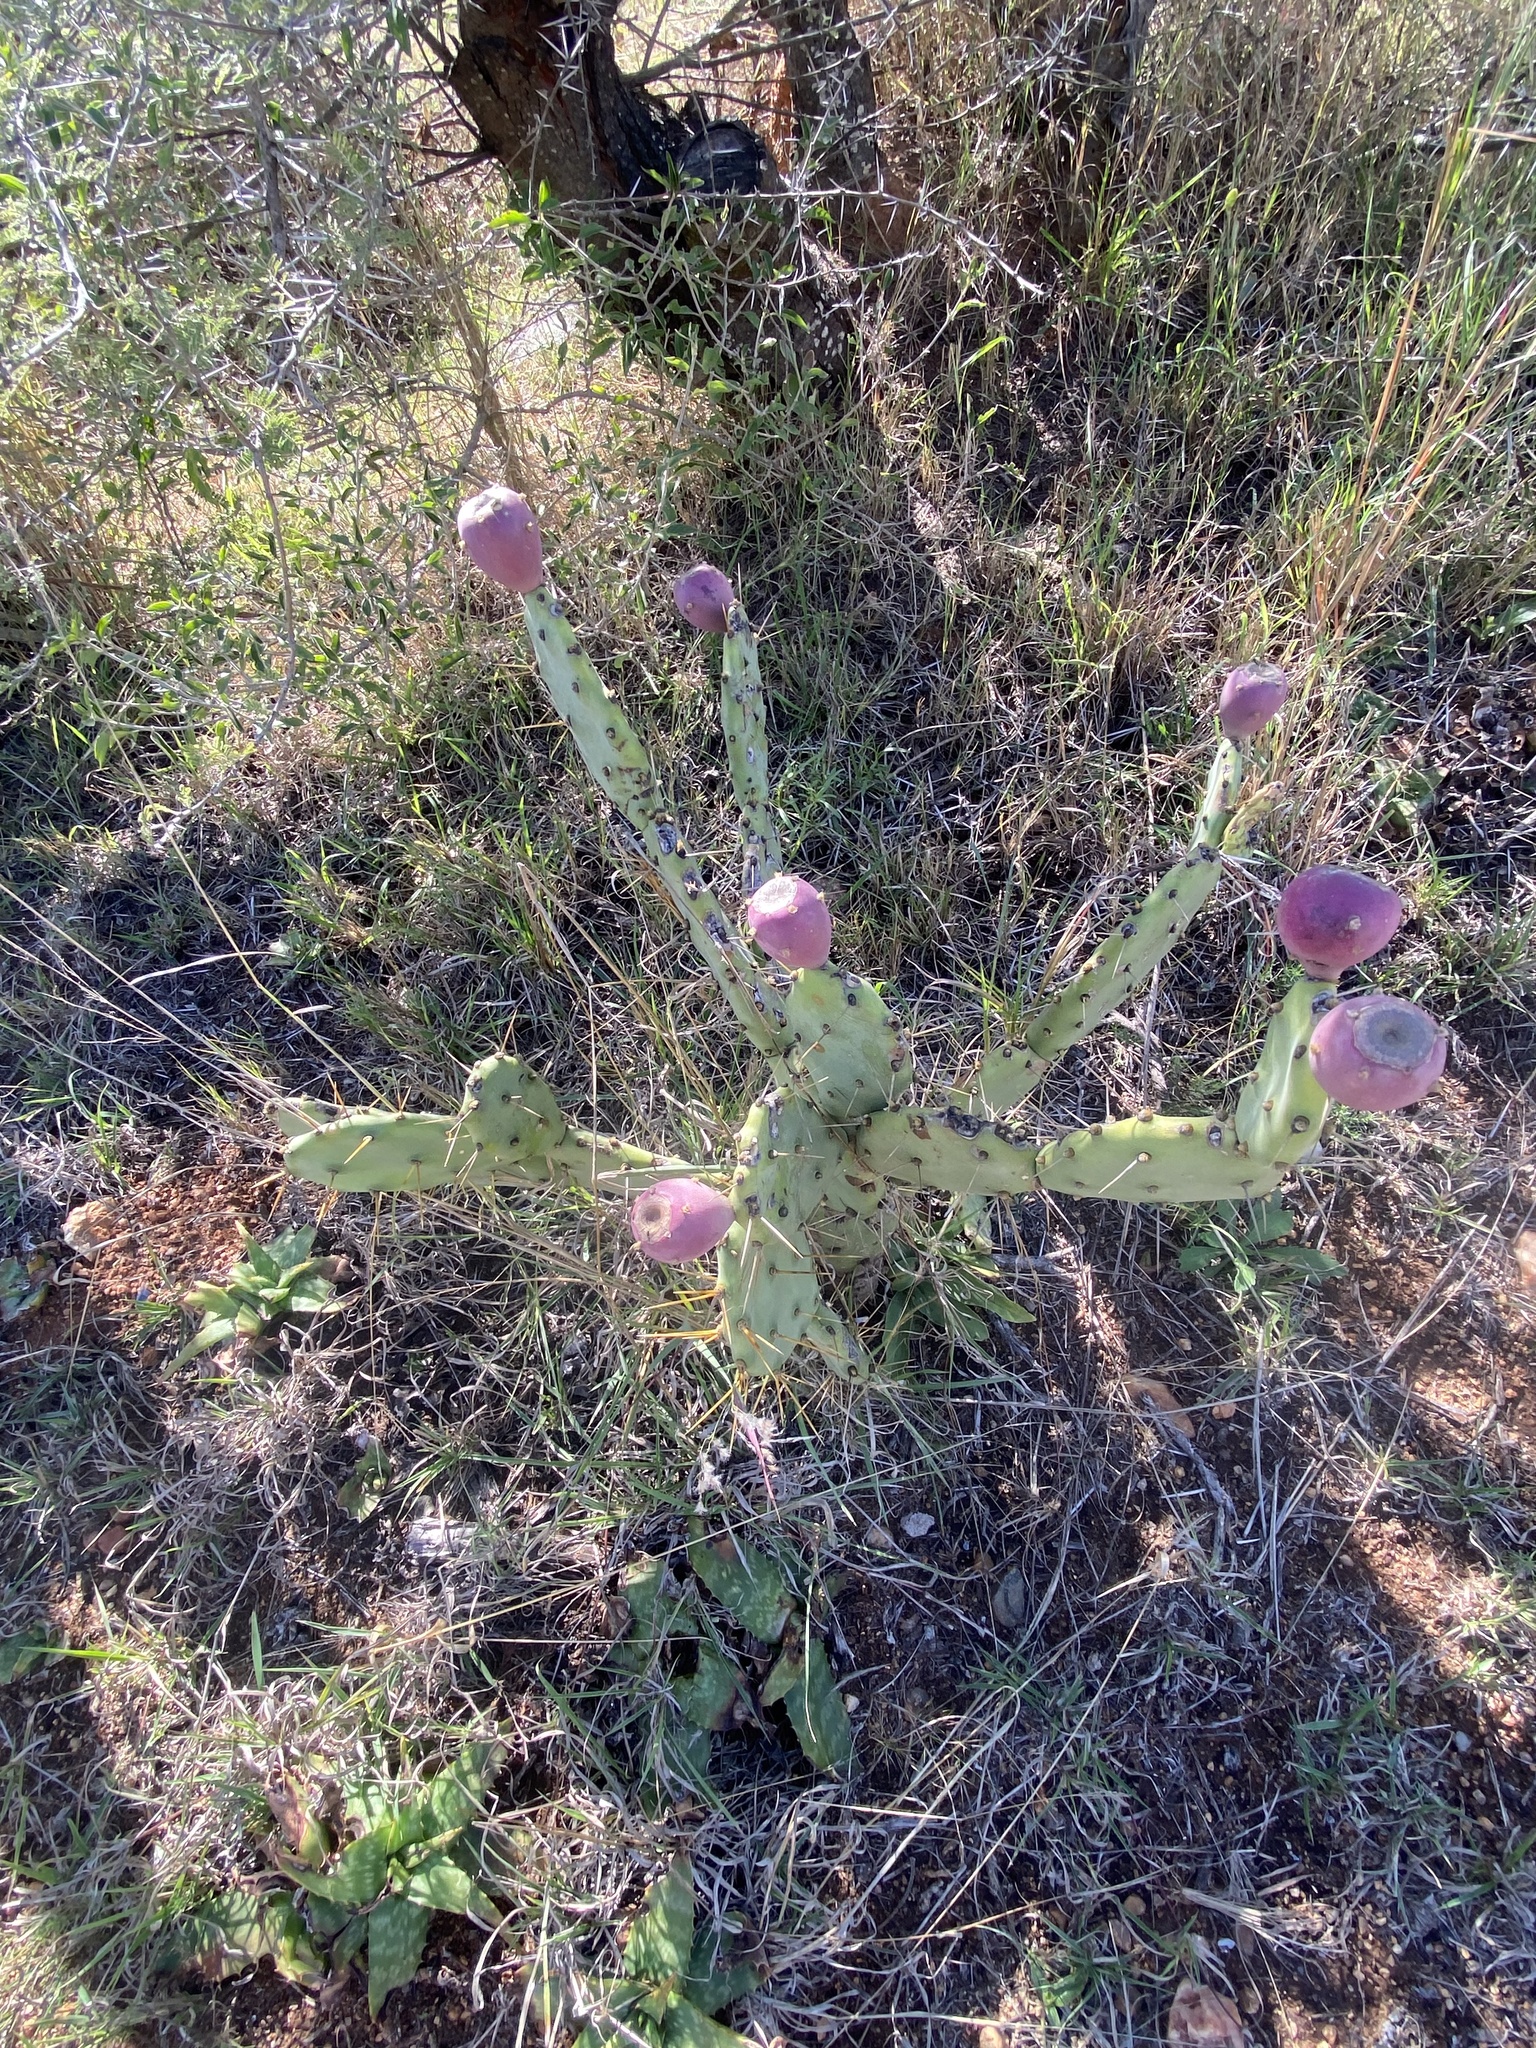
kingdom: Plantae
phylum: Tracheophyta
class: Magnoliopsida
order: Caryophyllales
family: Cactaceae
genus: Opuntia
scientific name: Opuntia stricta
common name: Erect pricklypear
